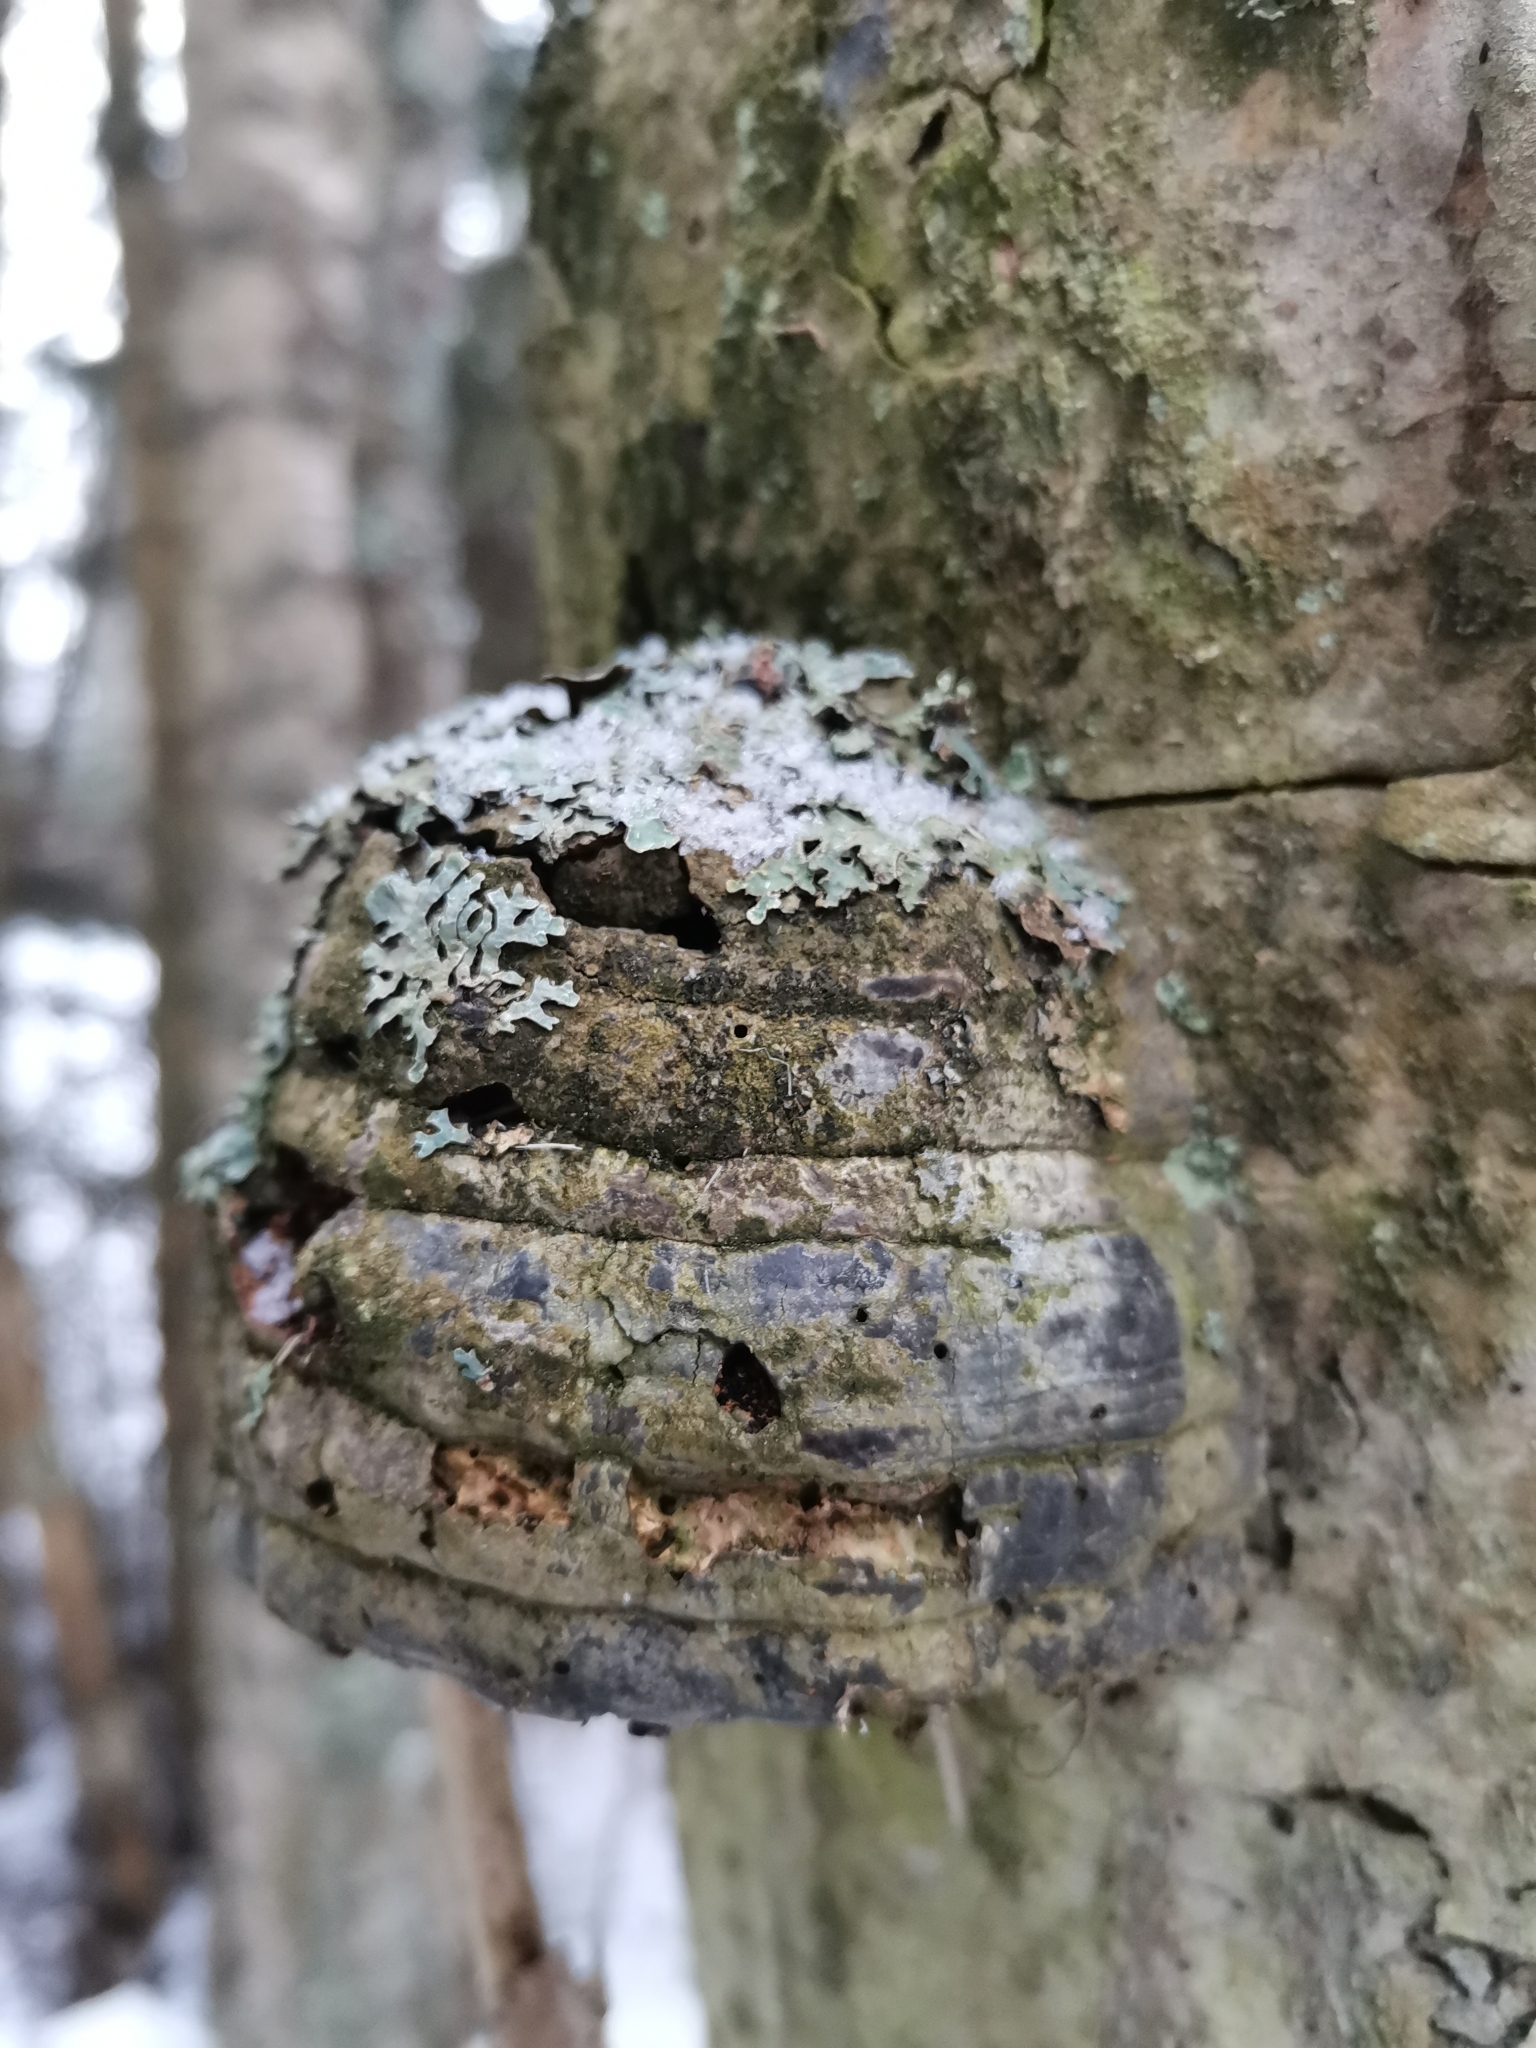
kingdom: Fungi
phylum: Basidiomycota
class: Agaricomycetes
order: Polyporales
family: Polyporaceae
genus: Fomes
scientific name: Fomes fomentarius
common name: Hoof fungus
